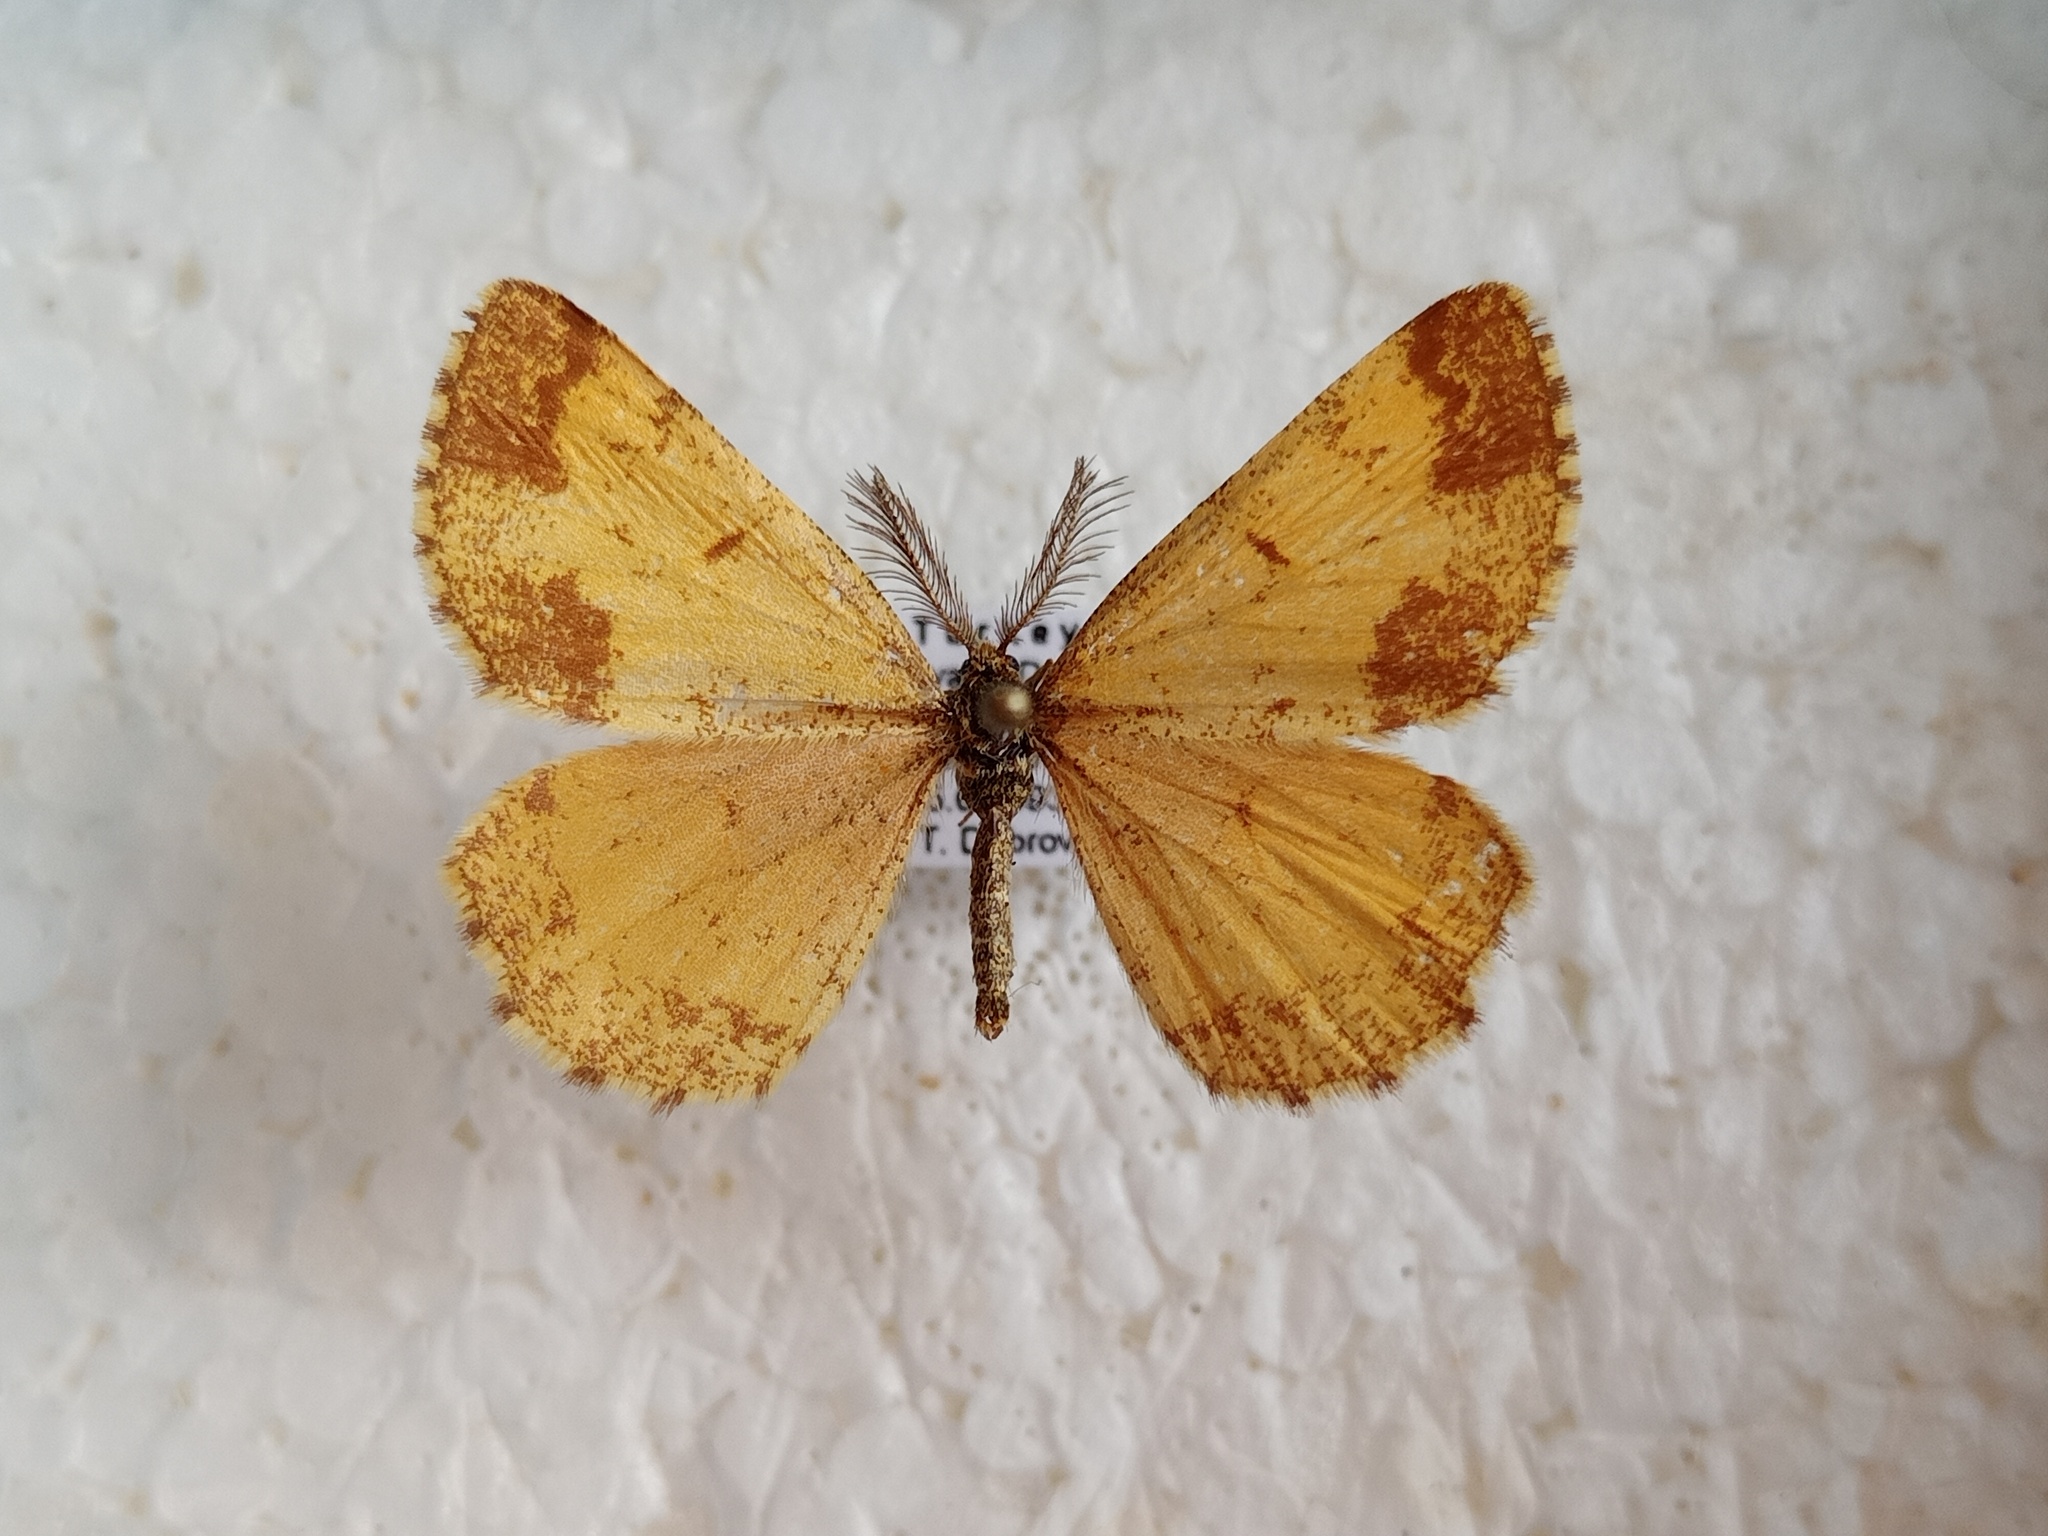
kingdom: Animalia
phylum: Arthropoda
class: Insecta
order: Lepidoptera
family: Geometridae
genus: Ematurga
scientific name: Ematurga atomaria
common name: Common heath
